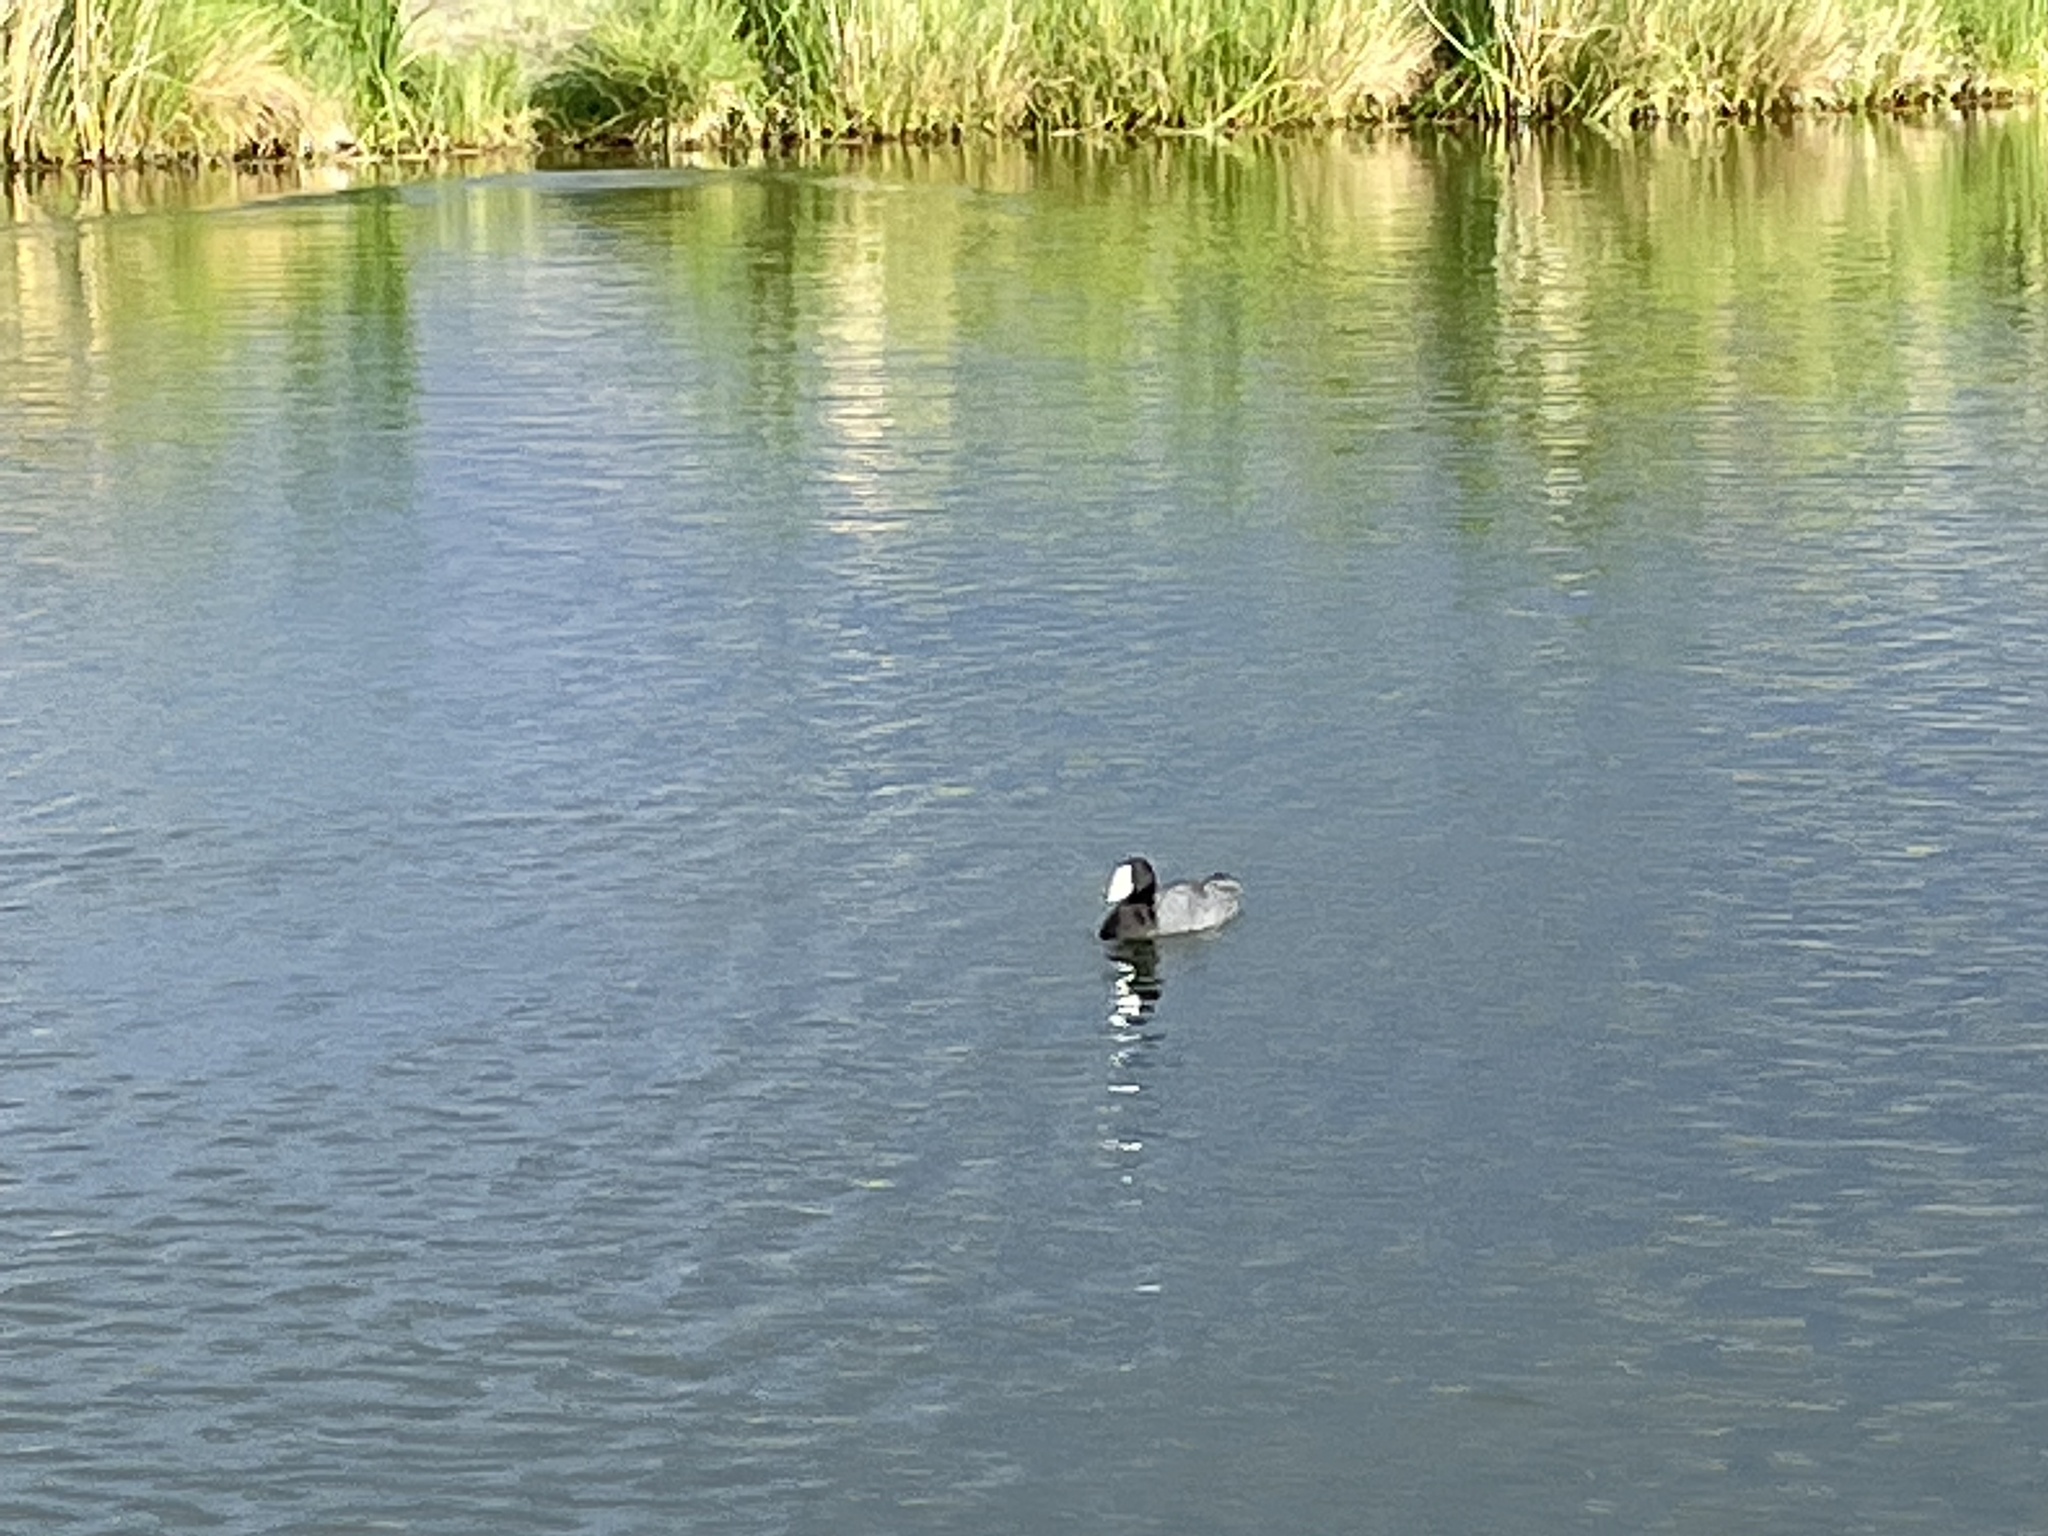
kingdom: Animalia
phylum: Chordata
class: Aves
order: Gruiformes
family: Rallidae
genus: Fulica
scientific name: Fulica americana
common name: American coot
